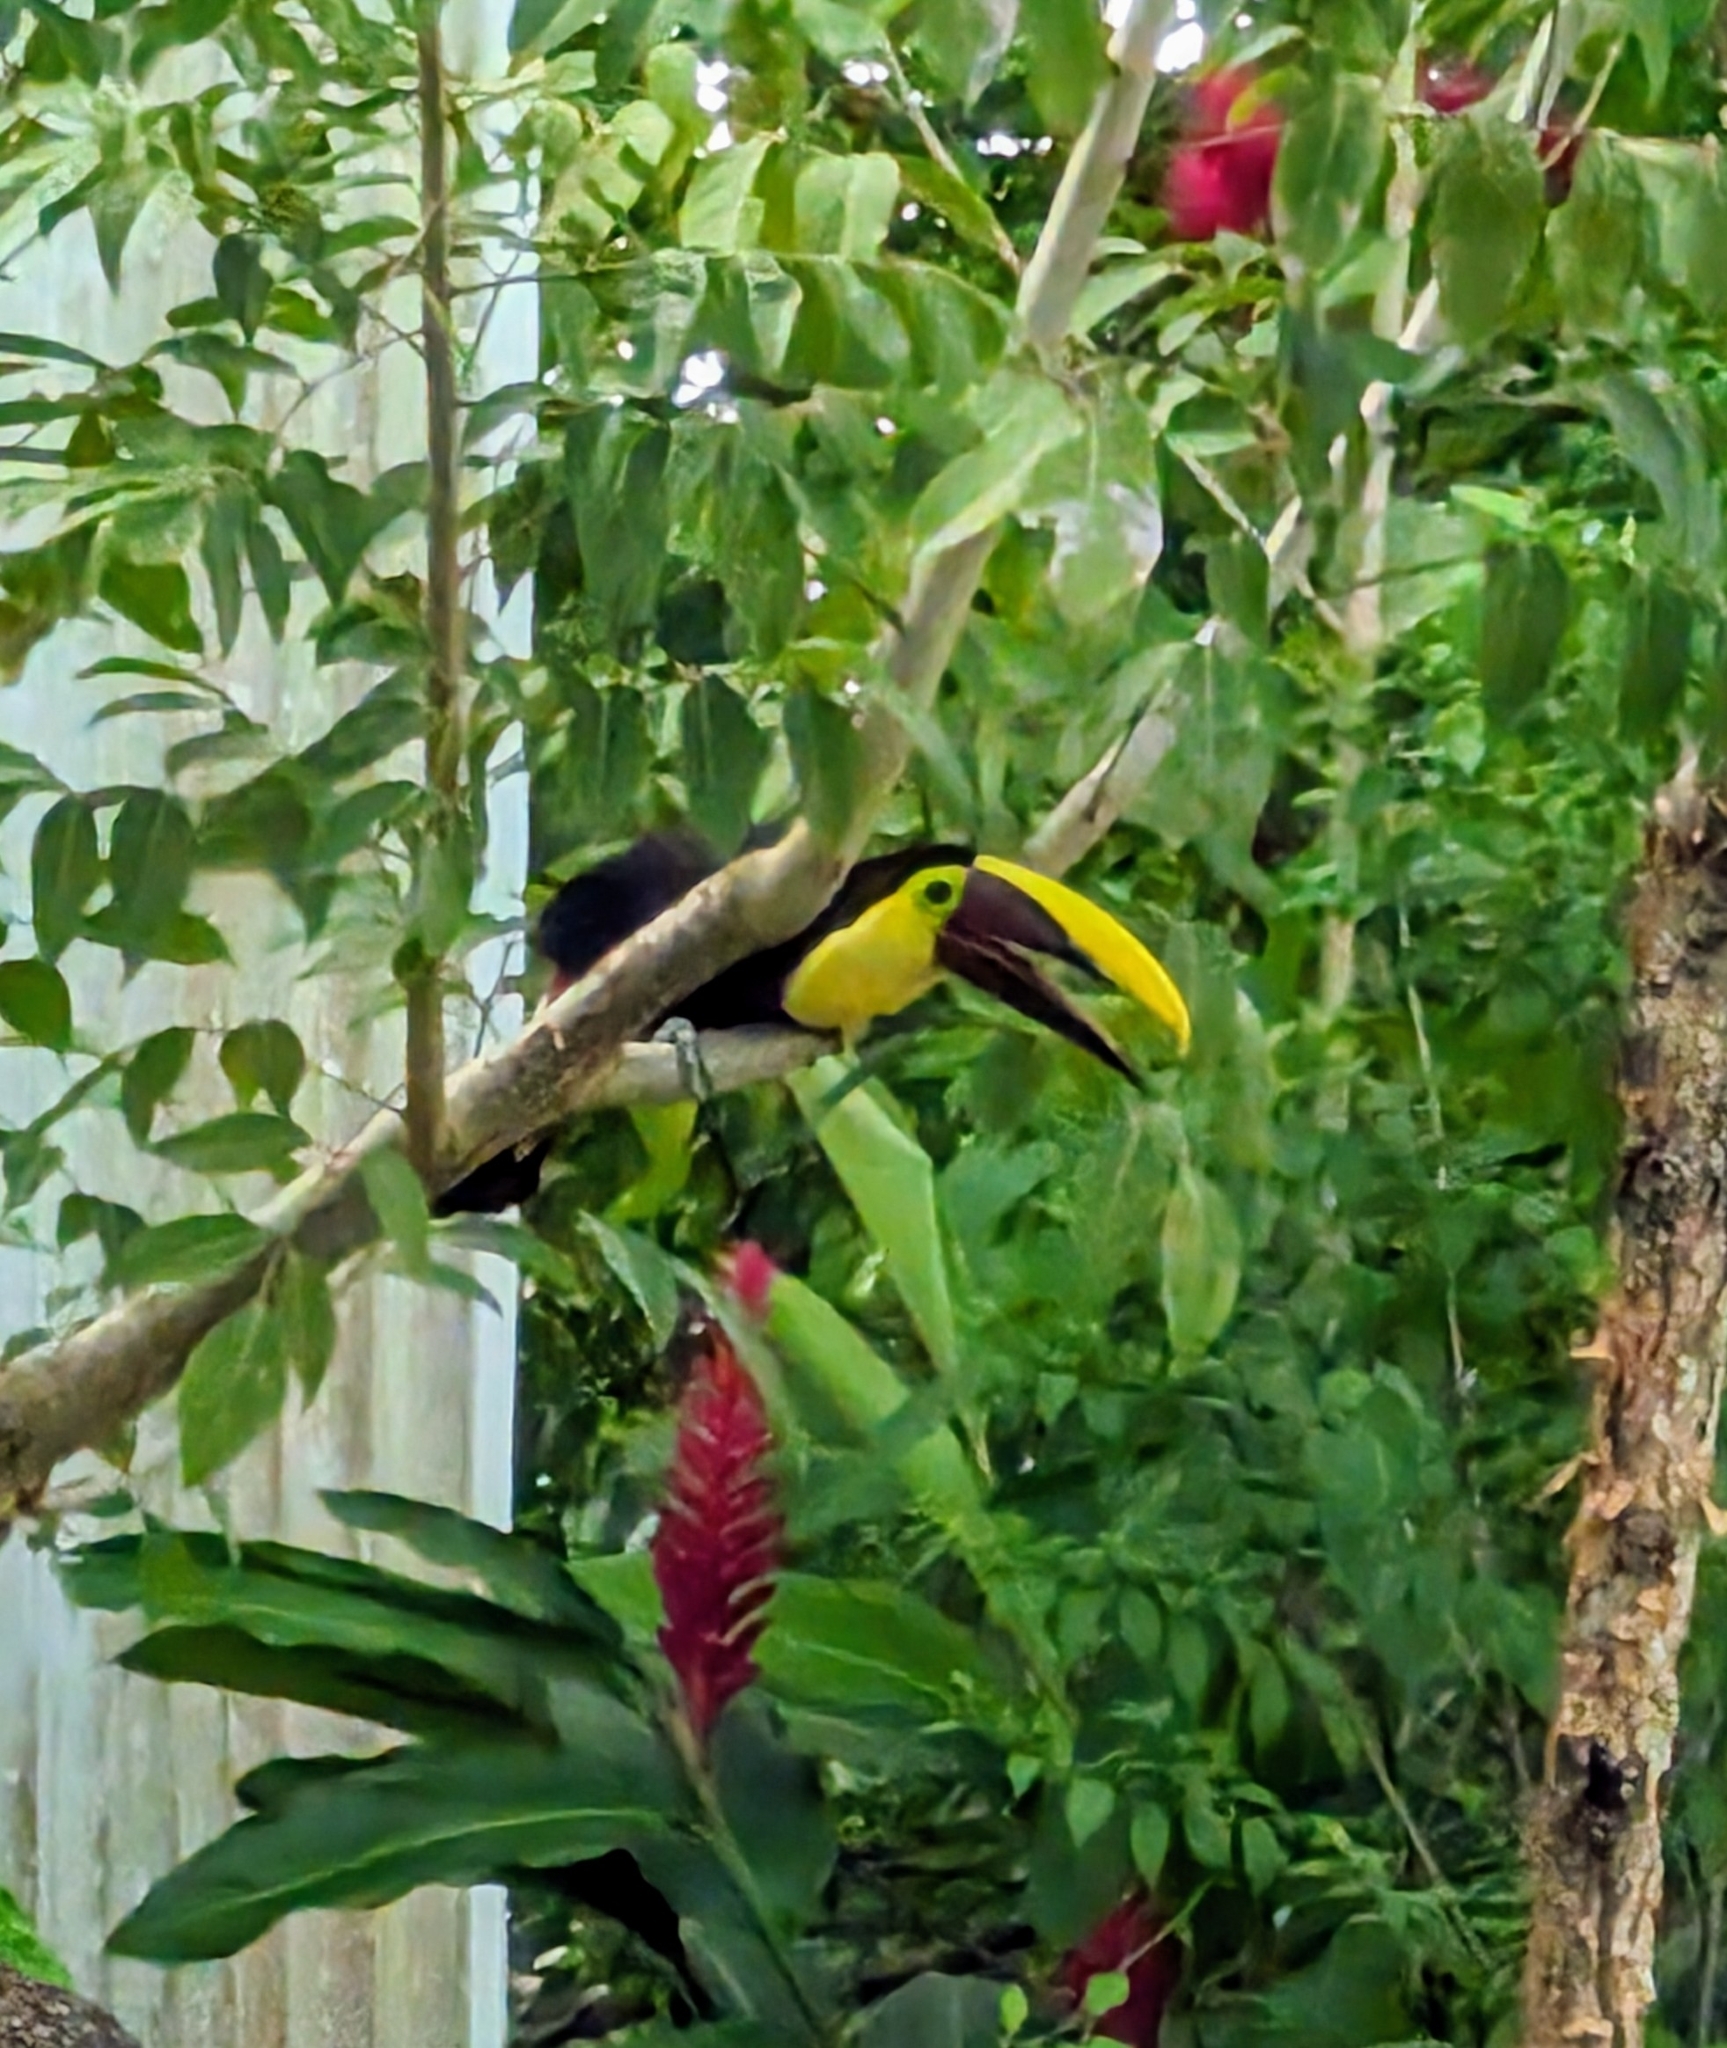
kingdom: Animalia
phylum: Chordata
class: Aves
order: Piciformes
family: Ramphastidae
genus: Ramphastos
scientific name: Ramphastos ambiguus
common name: Yellow-throated toucan
